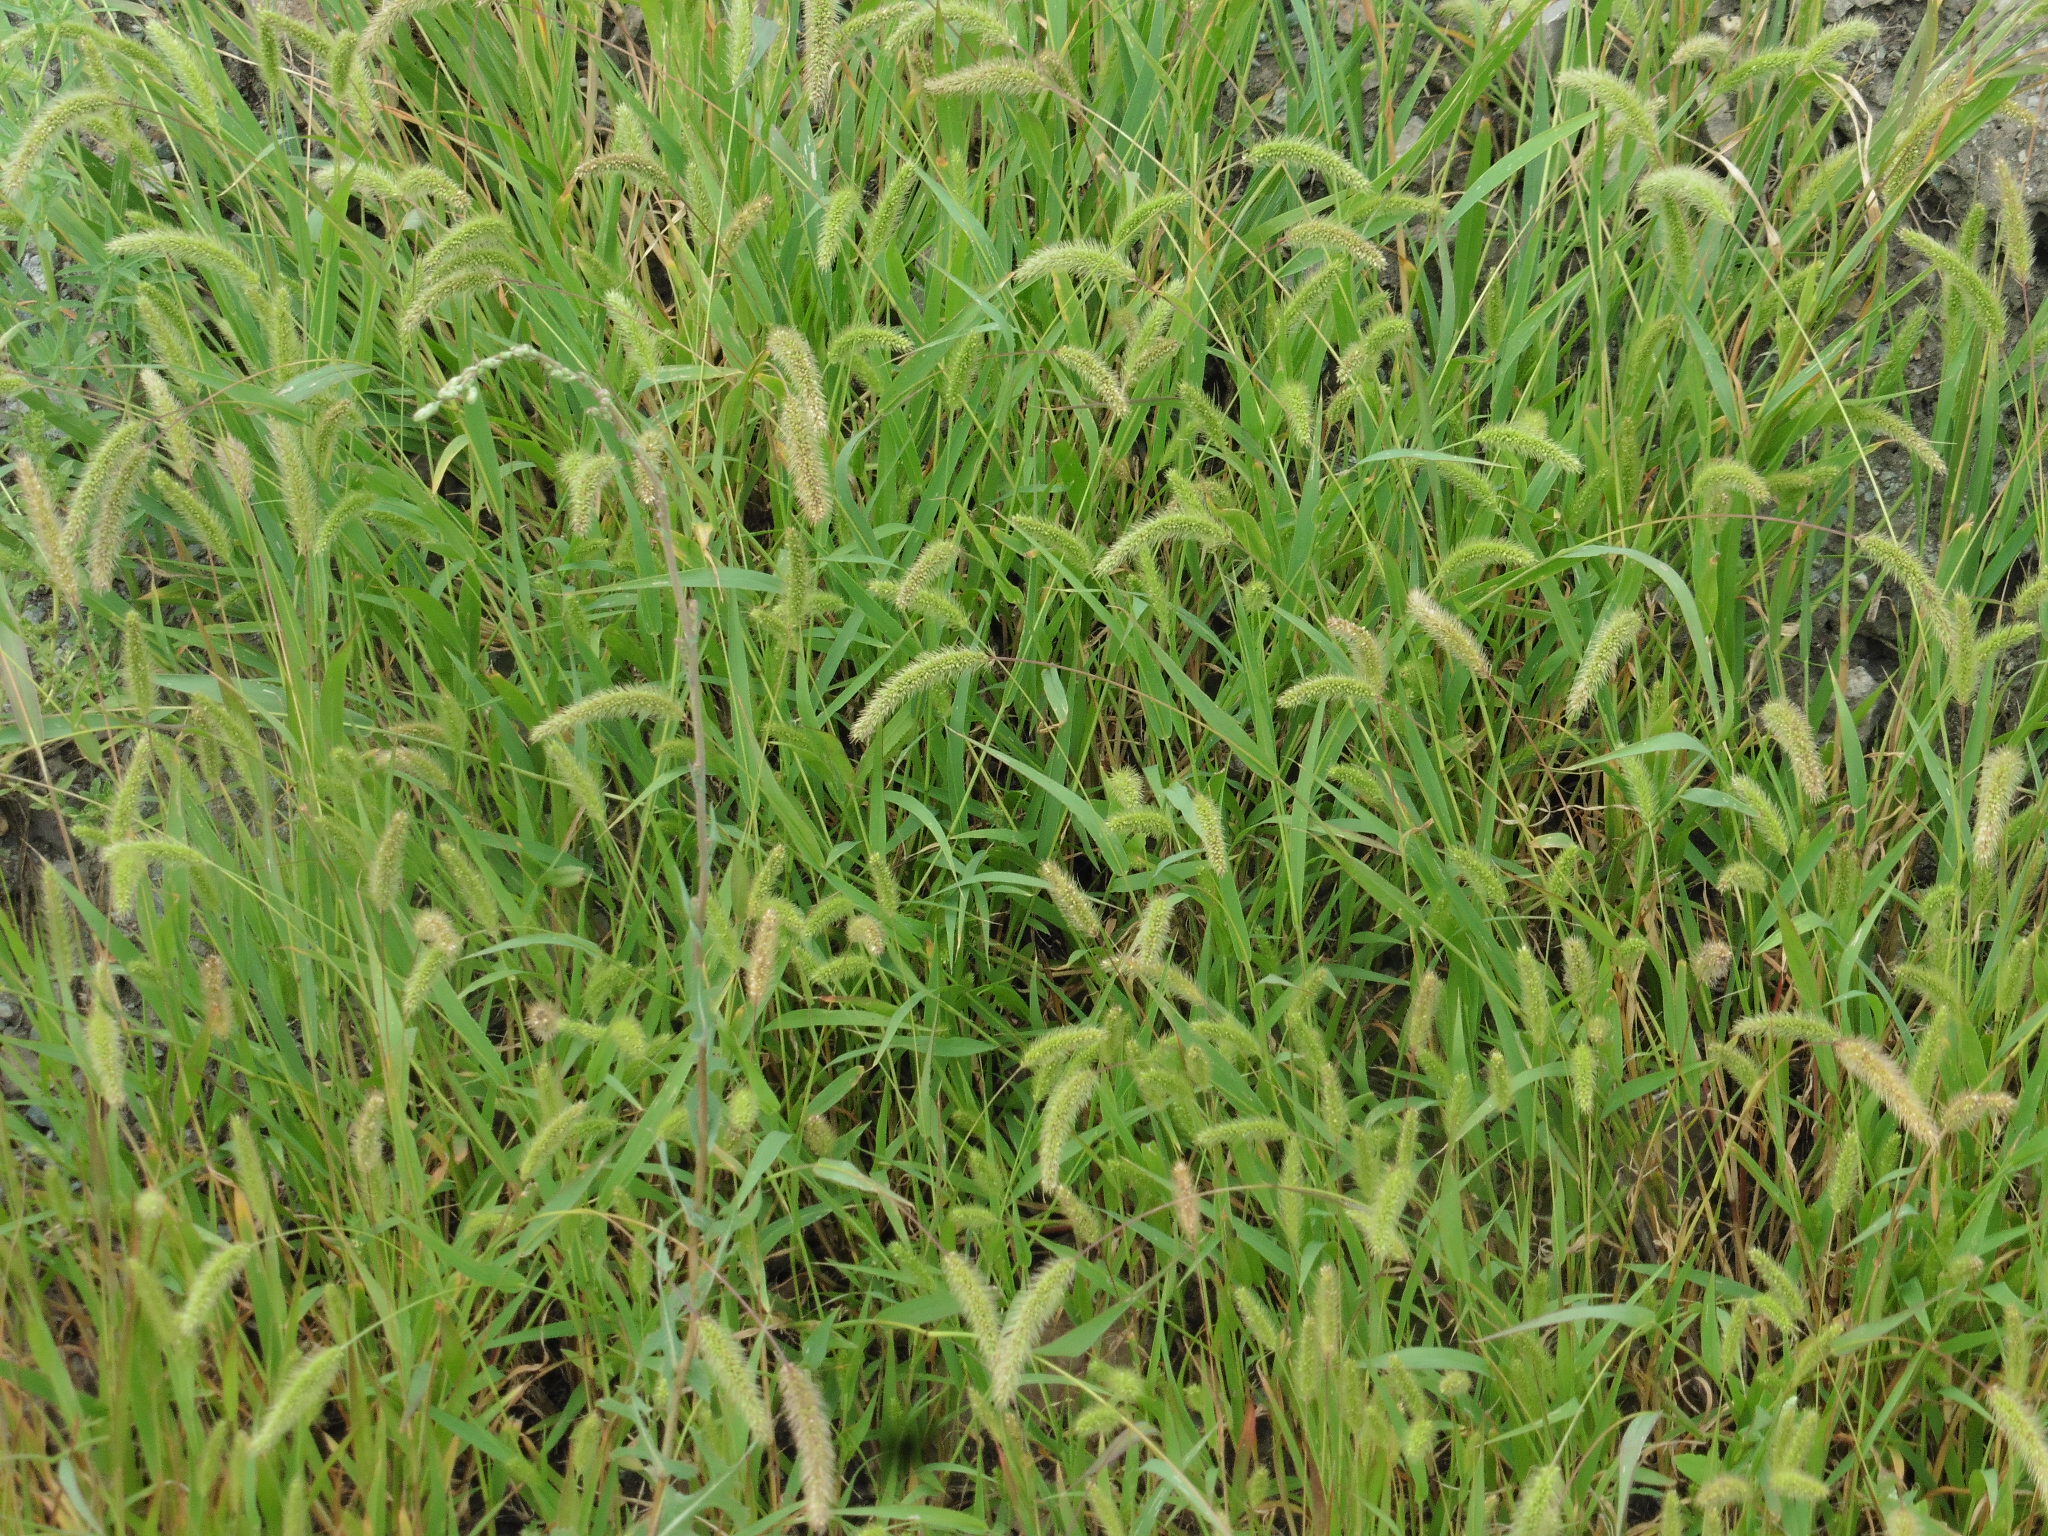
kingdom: Plantae
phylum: Tracheophyta
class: Liliopsida
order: Poales
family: Poaceae
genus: Setaria
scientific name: Setaria viridis
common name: Green bristlegrass
